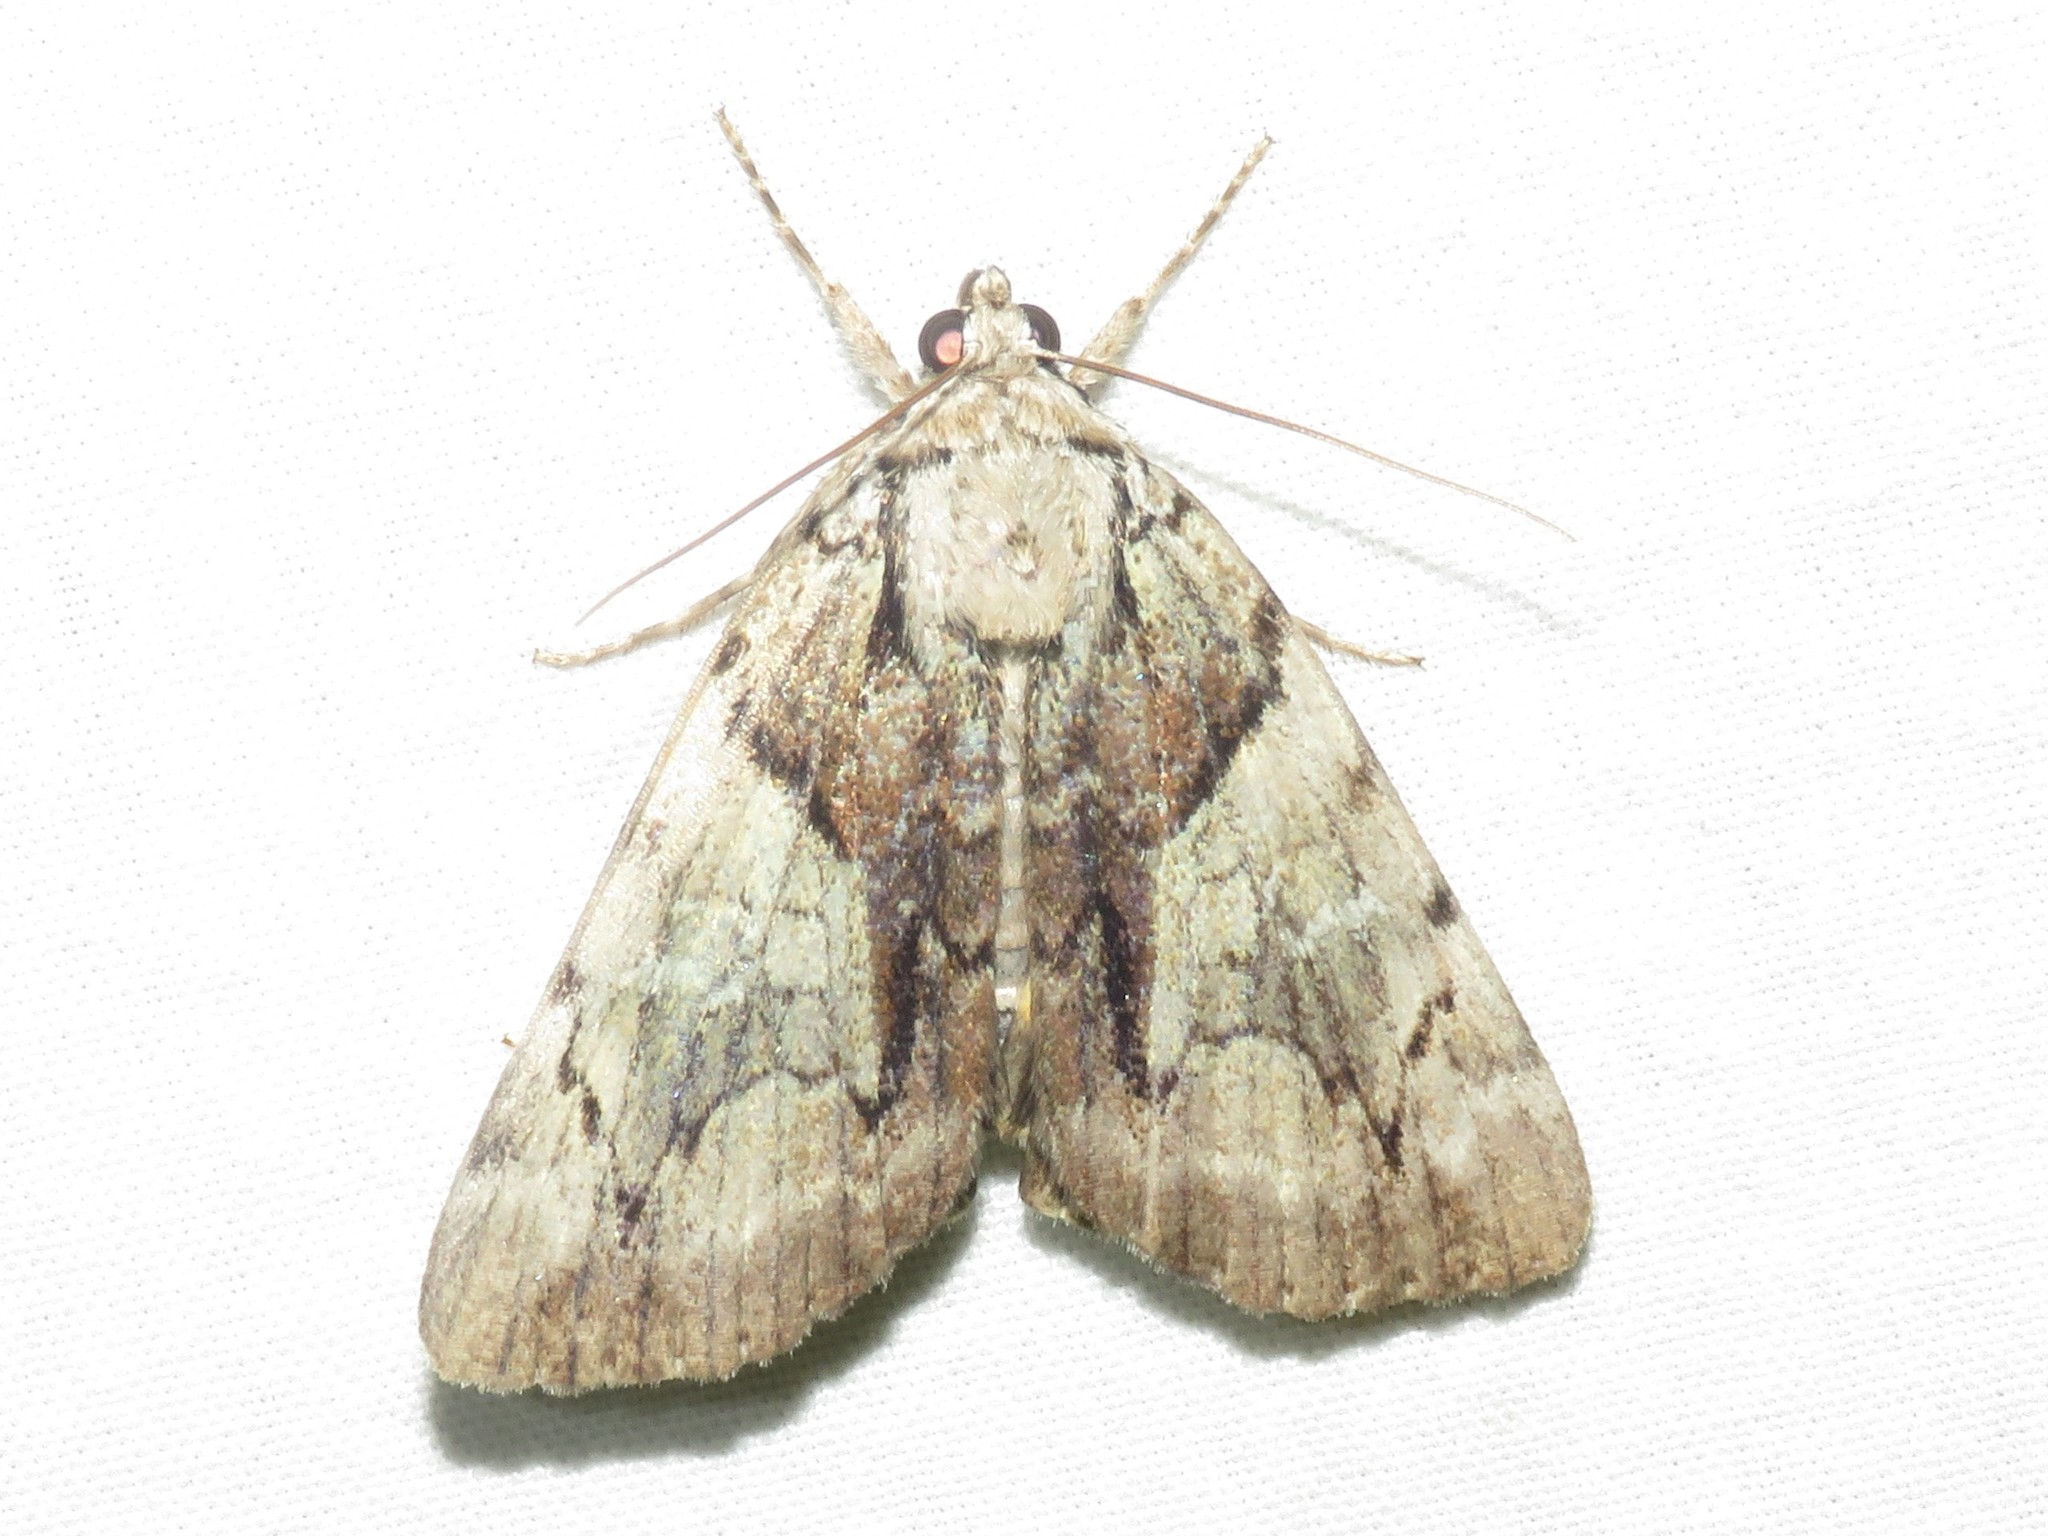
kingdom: Animalia
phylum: Arthropoda
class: Insecta
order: Lepidoptera
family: Erebidae
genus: Catocala
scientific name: Catocala blandula
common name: Charming underwing
